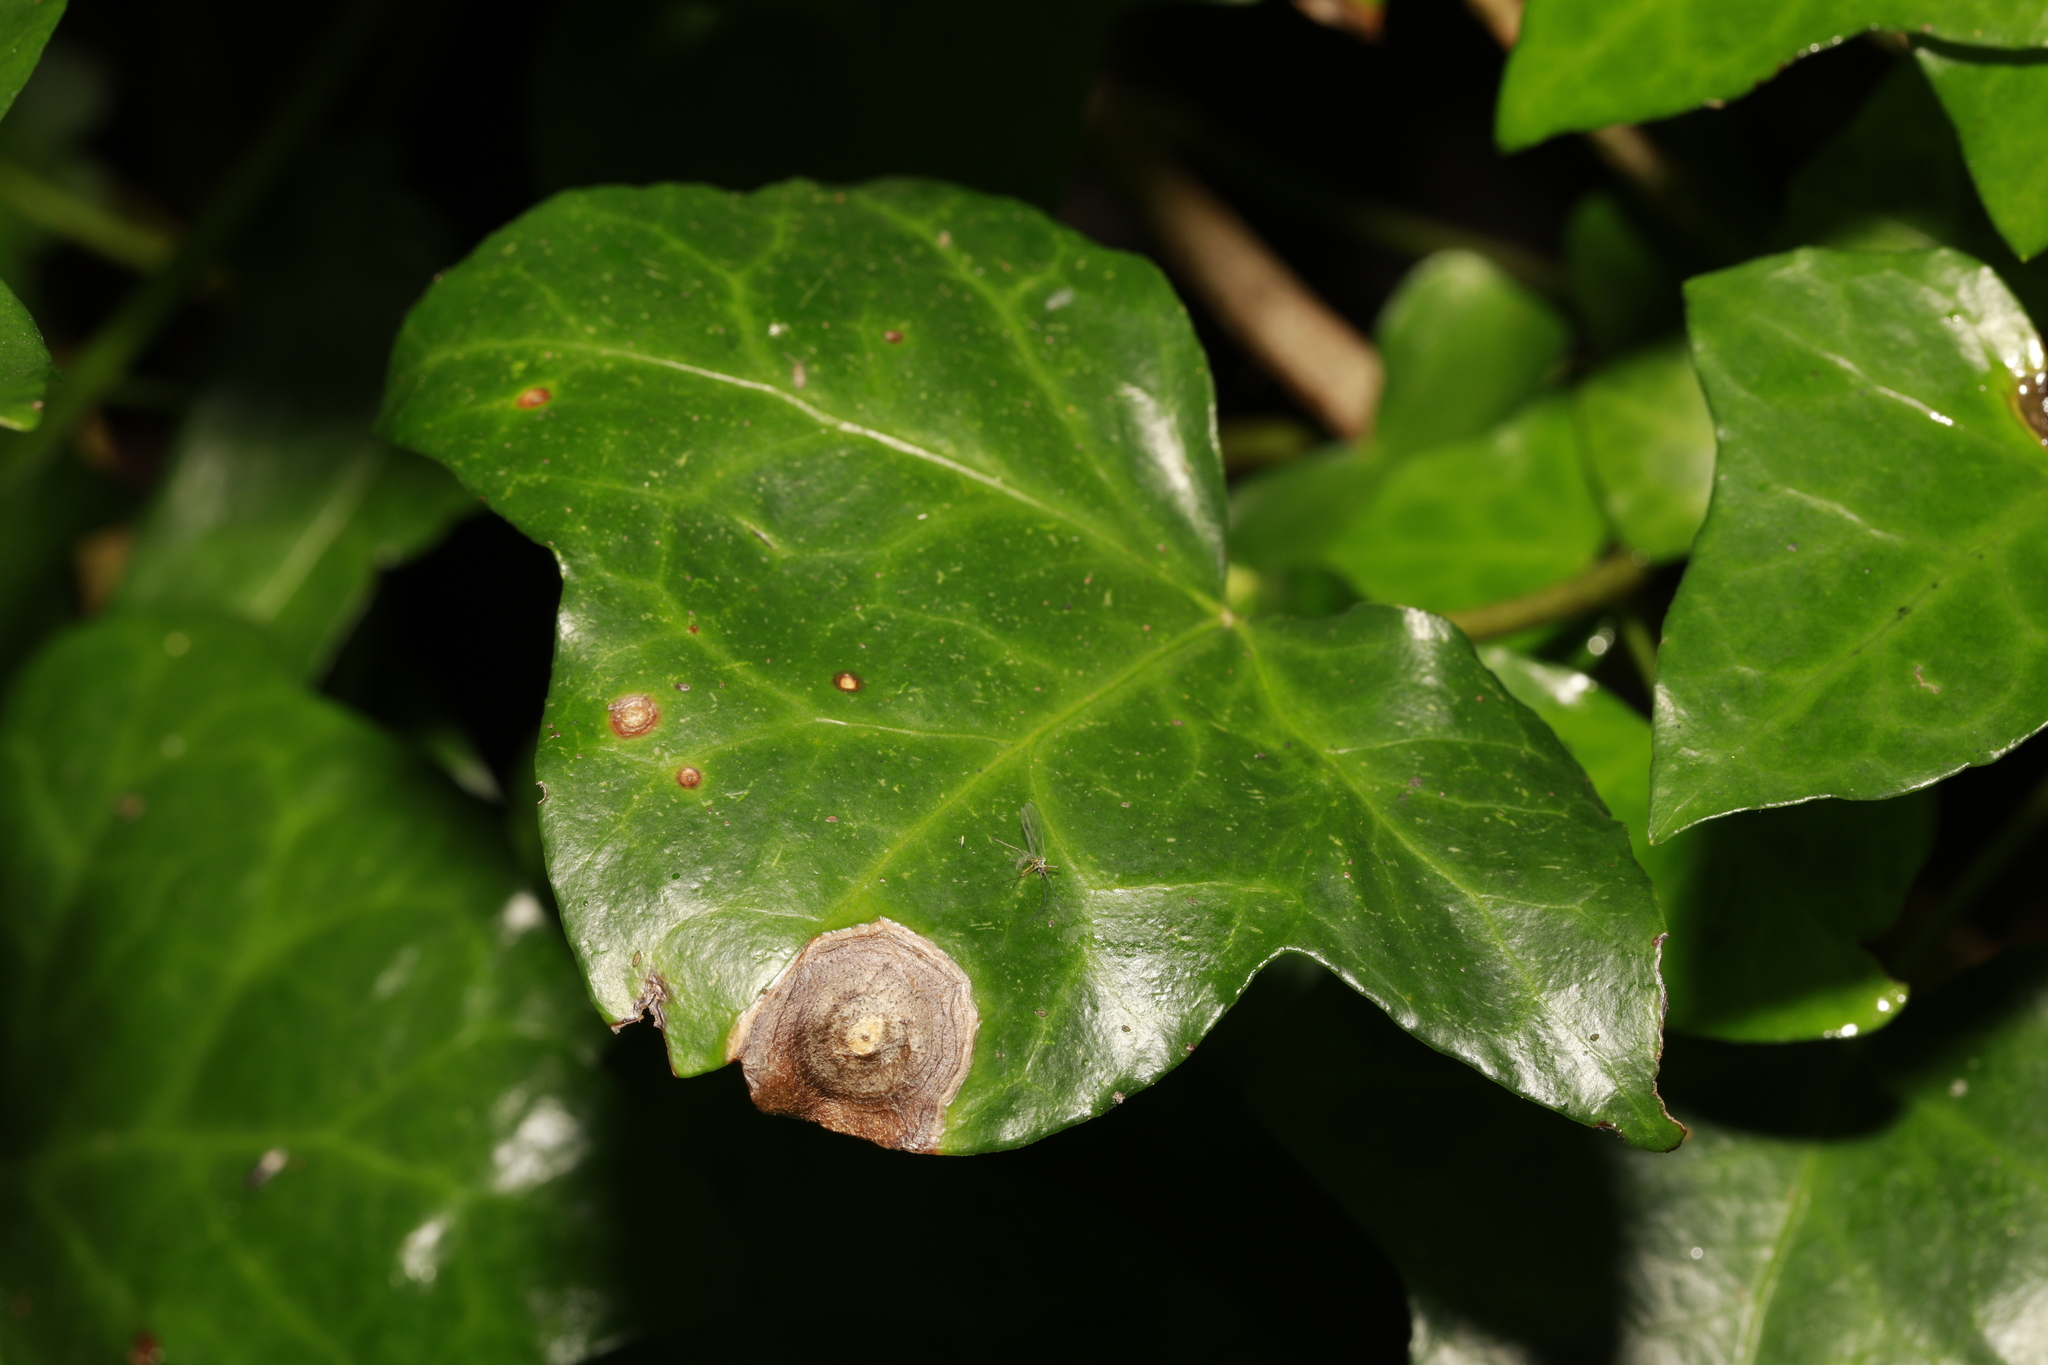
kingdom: Fungi
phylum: Ascomycota
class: Dothideomycetes
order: Pleosporales
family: Didymellaceae
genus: Boeremia
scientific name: Boeremia hedericola
